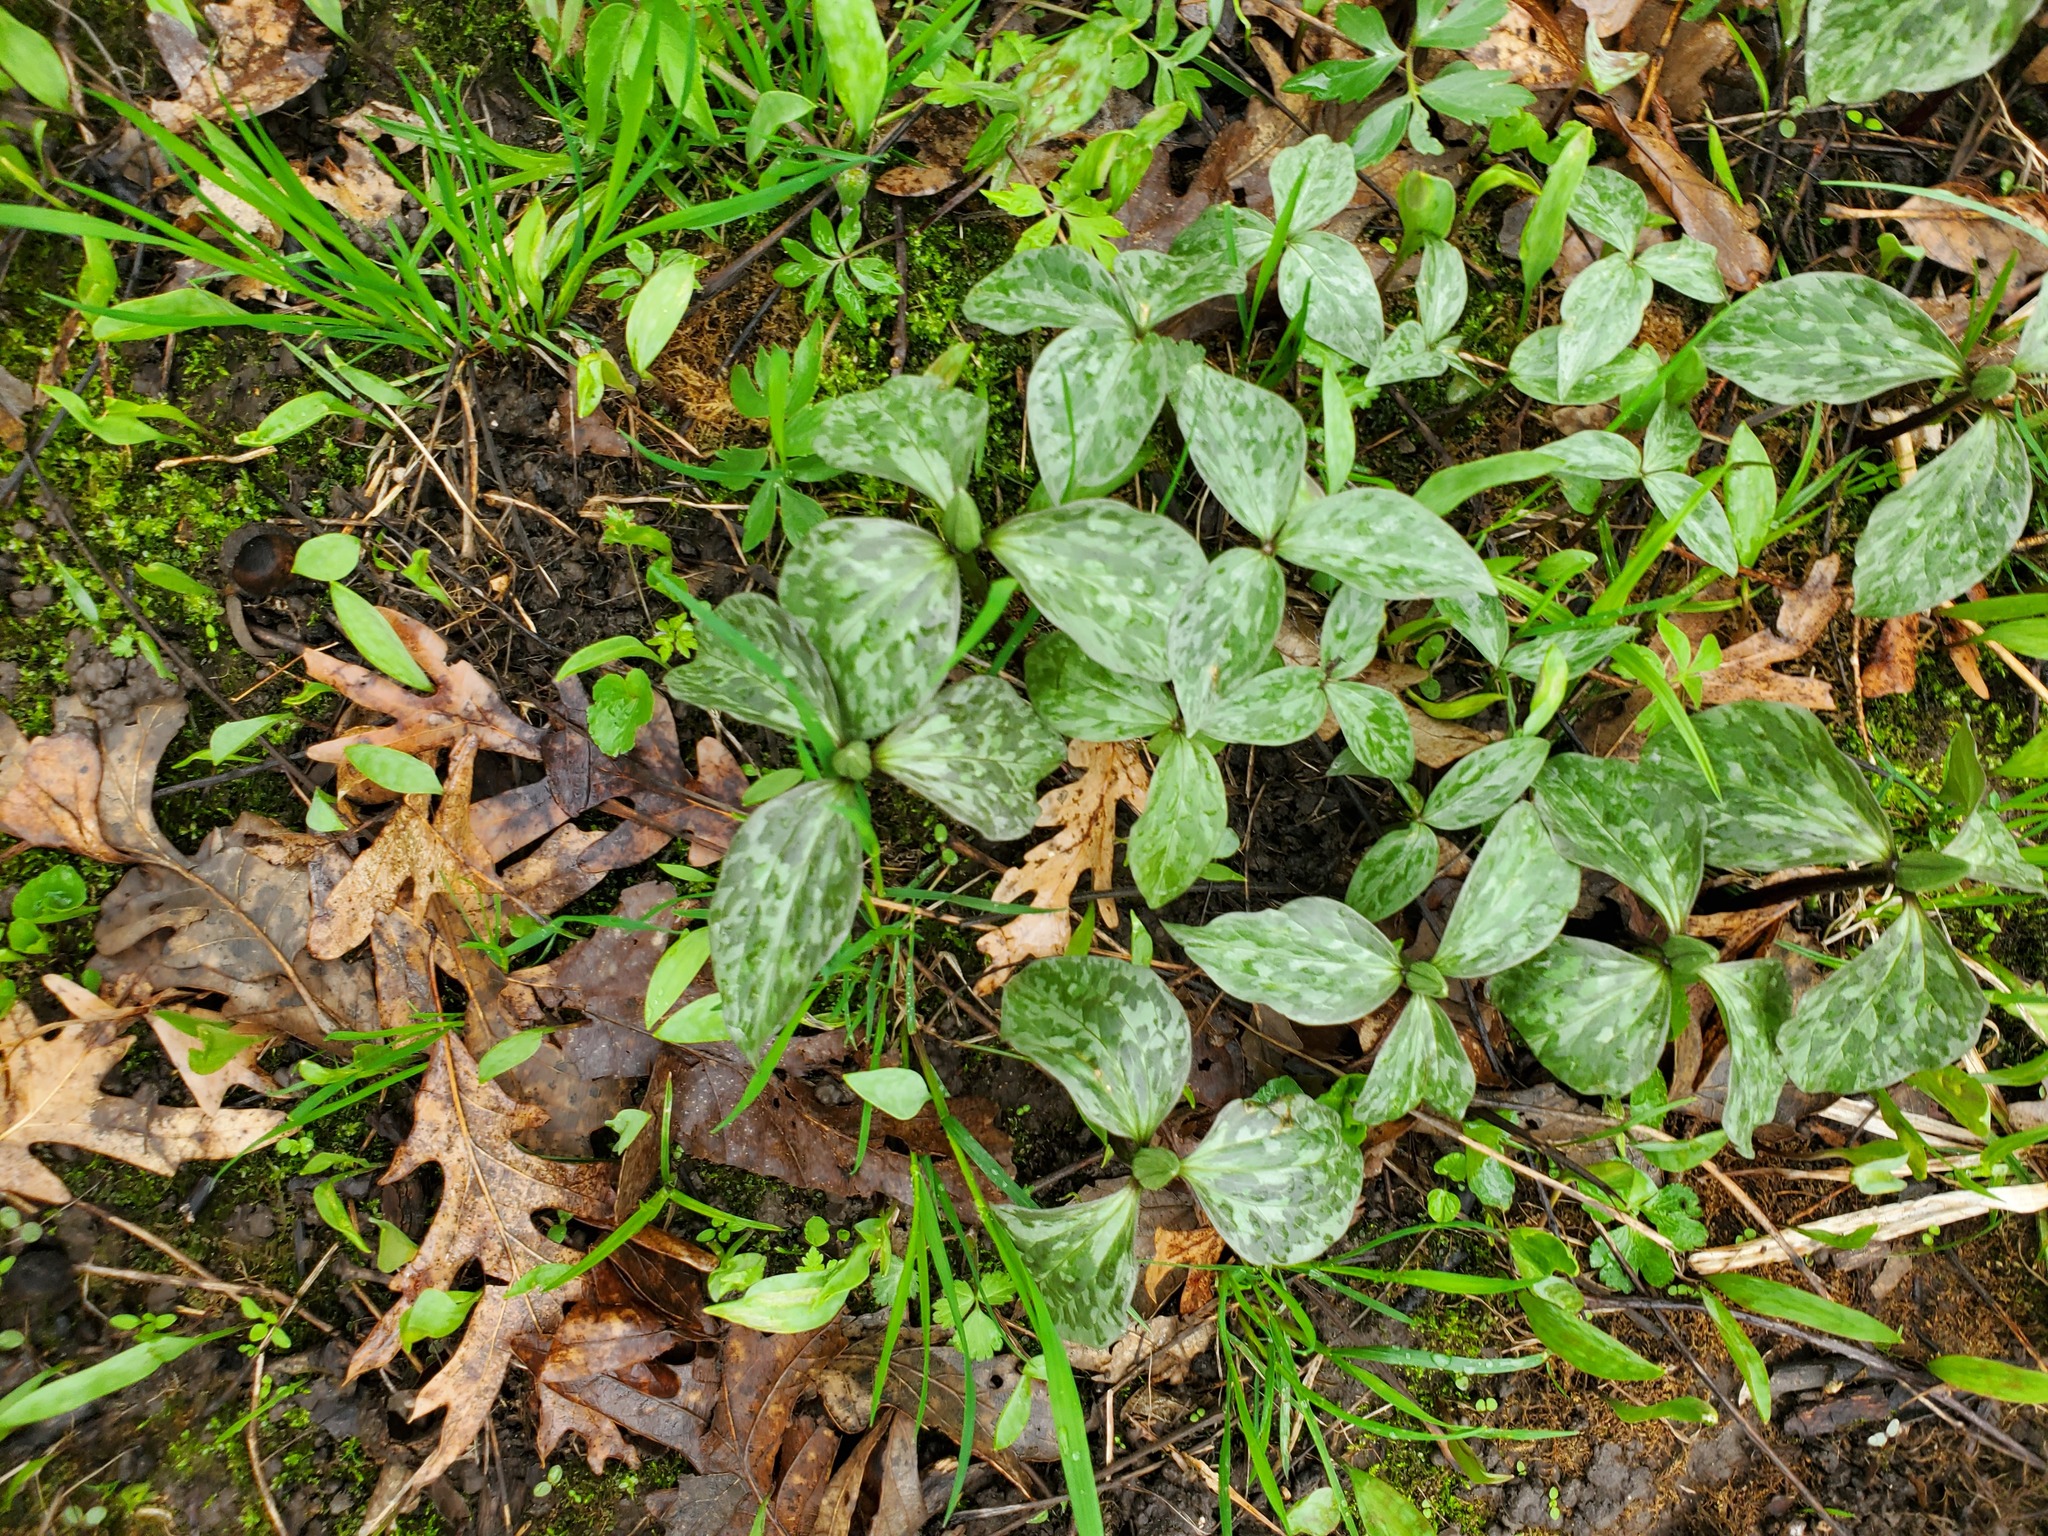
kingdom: Plantae
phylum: Tracheophyta
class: Liliopsida
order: Liliales
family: Melanthiaceae
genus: Trillium
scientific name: Trillium recurvatum
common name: Bloody butcher
